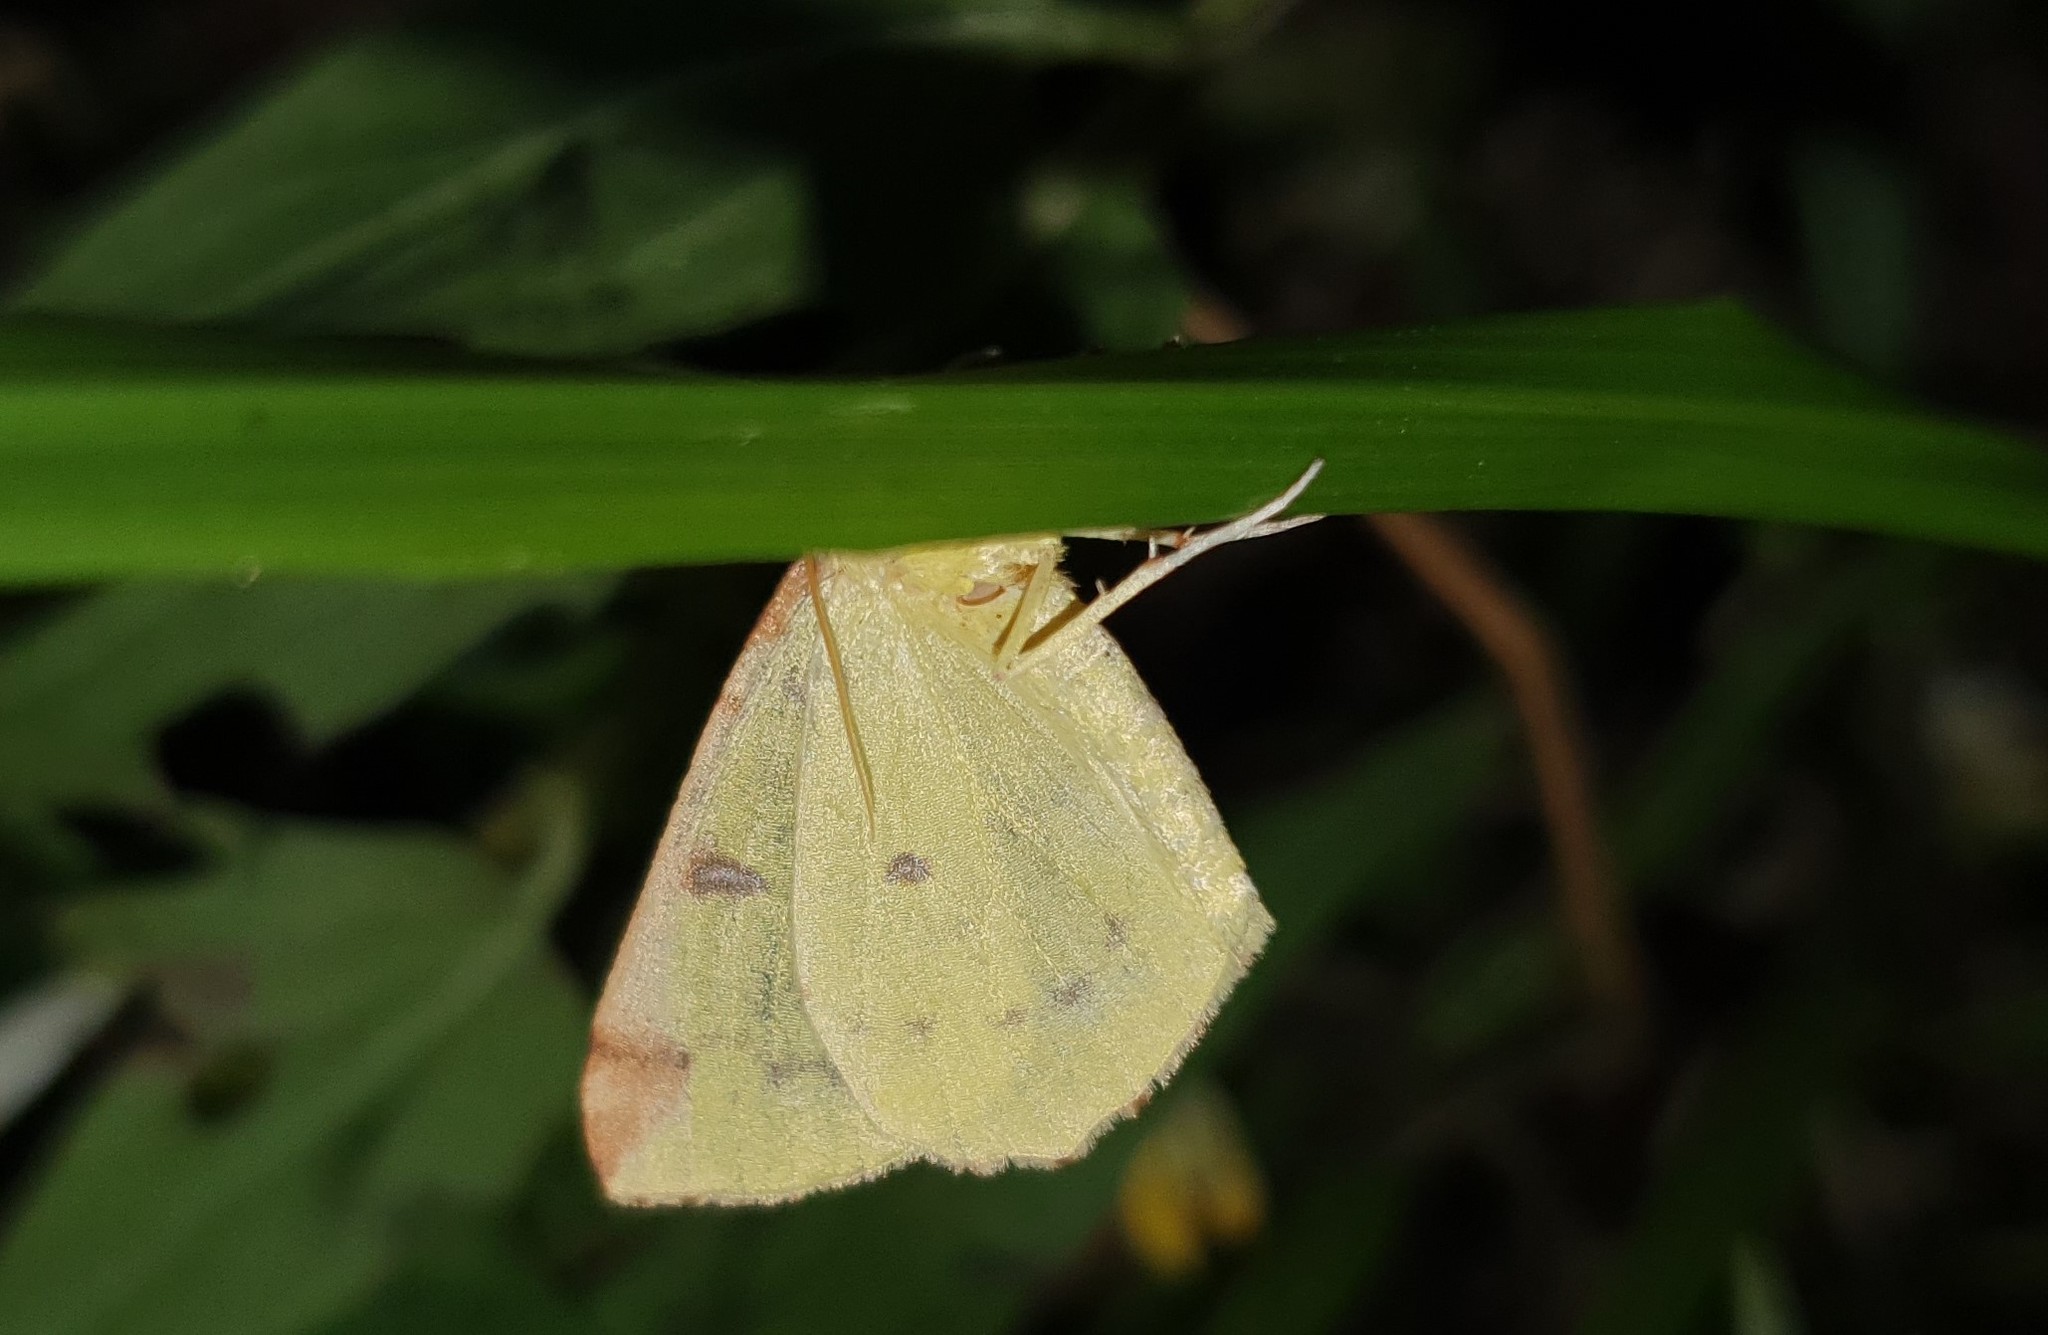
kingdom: Animalia
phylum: Arthropoda
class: Insecta
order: Lepidoptera
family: Geometridae
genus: Opisthograptis
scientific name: Opisthograptis luteolata
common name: Brimstone moth
